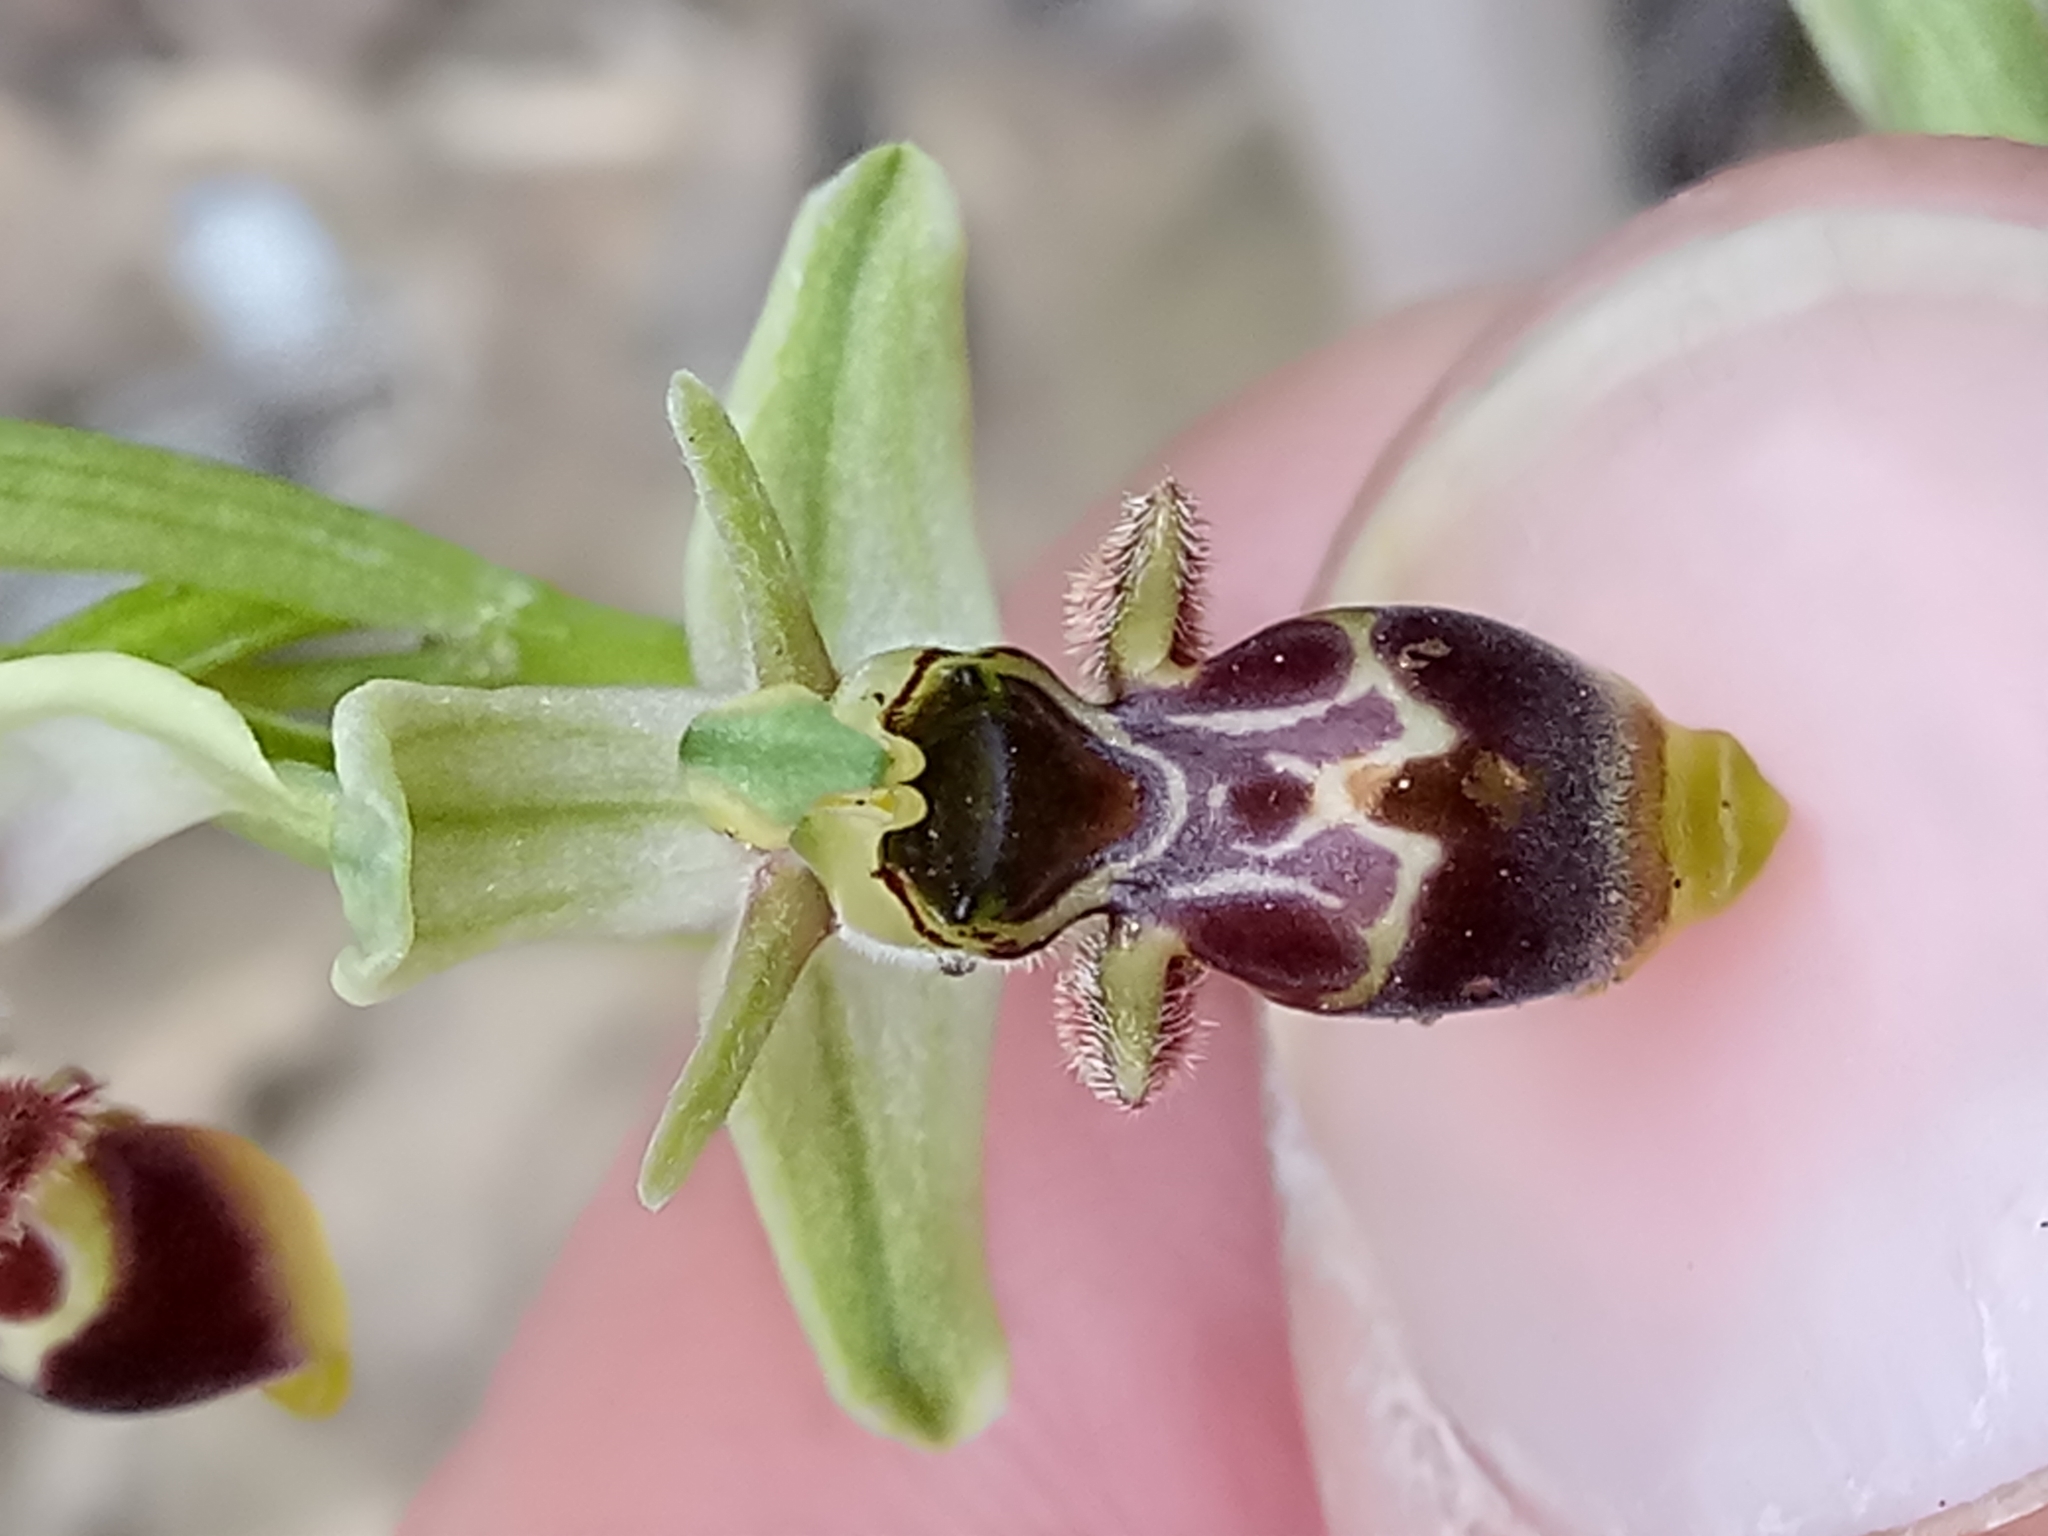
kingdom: Plantae
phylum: Tracheophyta
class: Liliopsida
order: Asparagales
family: Orchidaceae
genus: Ophrys
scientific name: Ophrys scolopax
